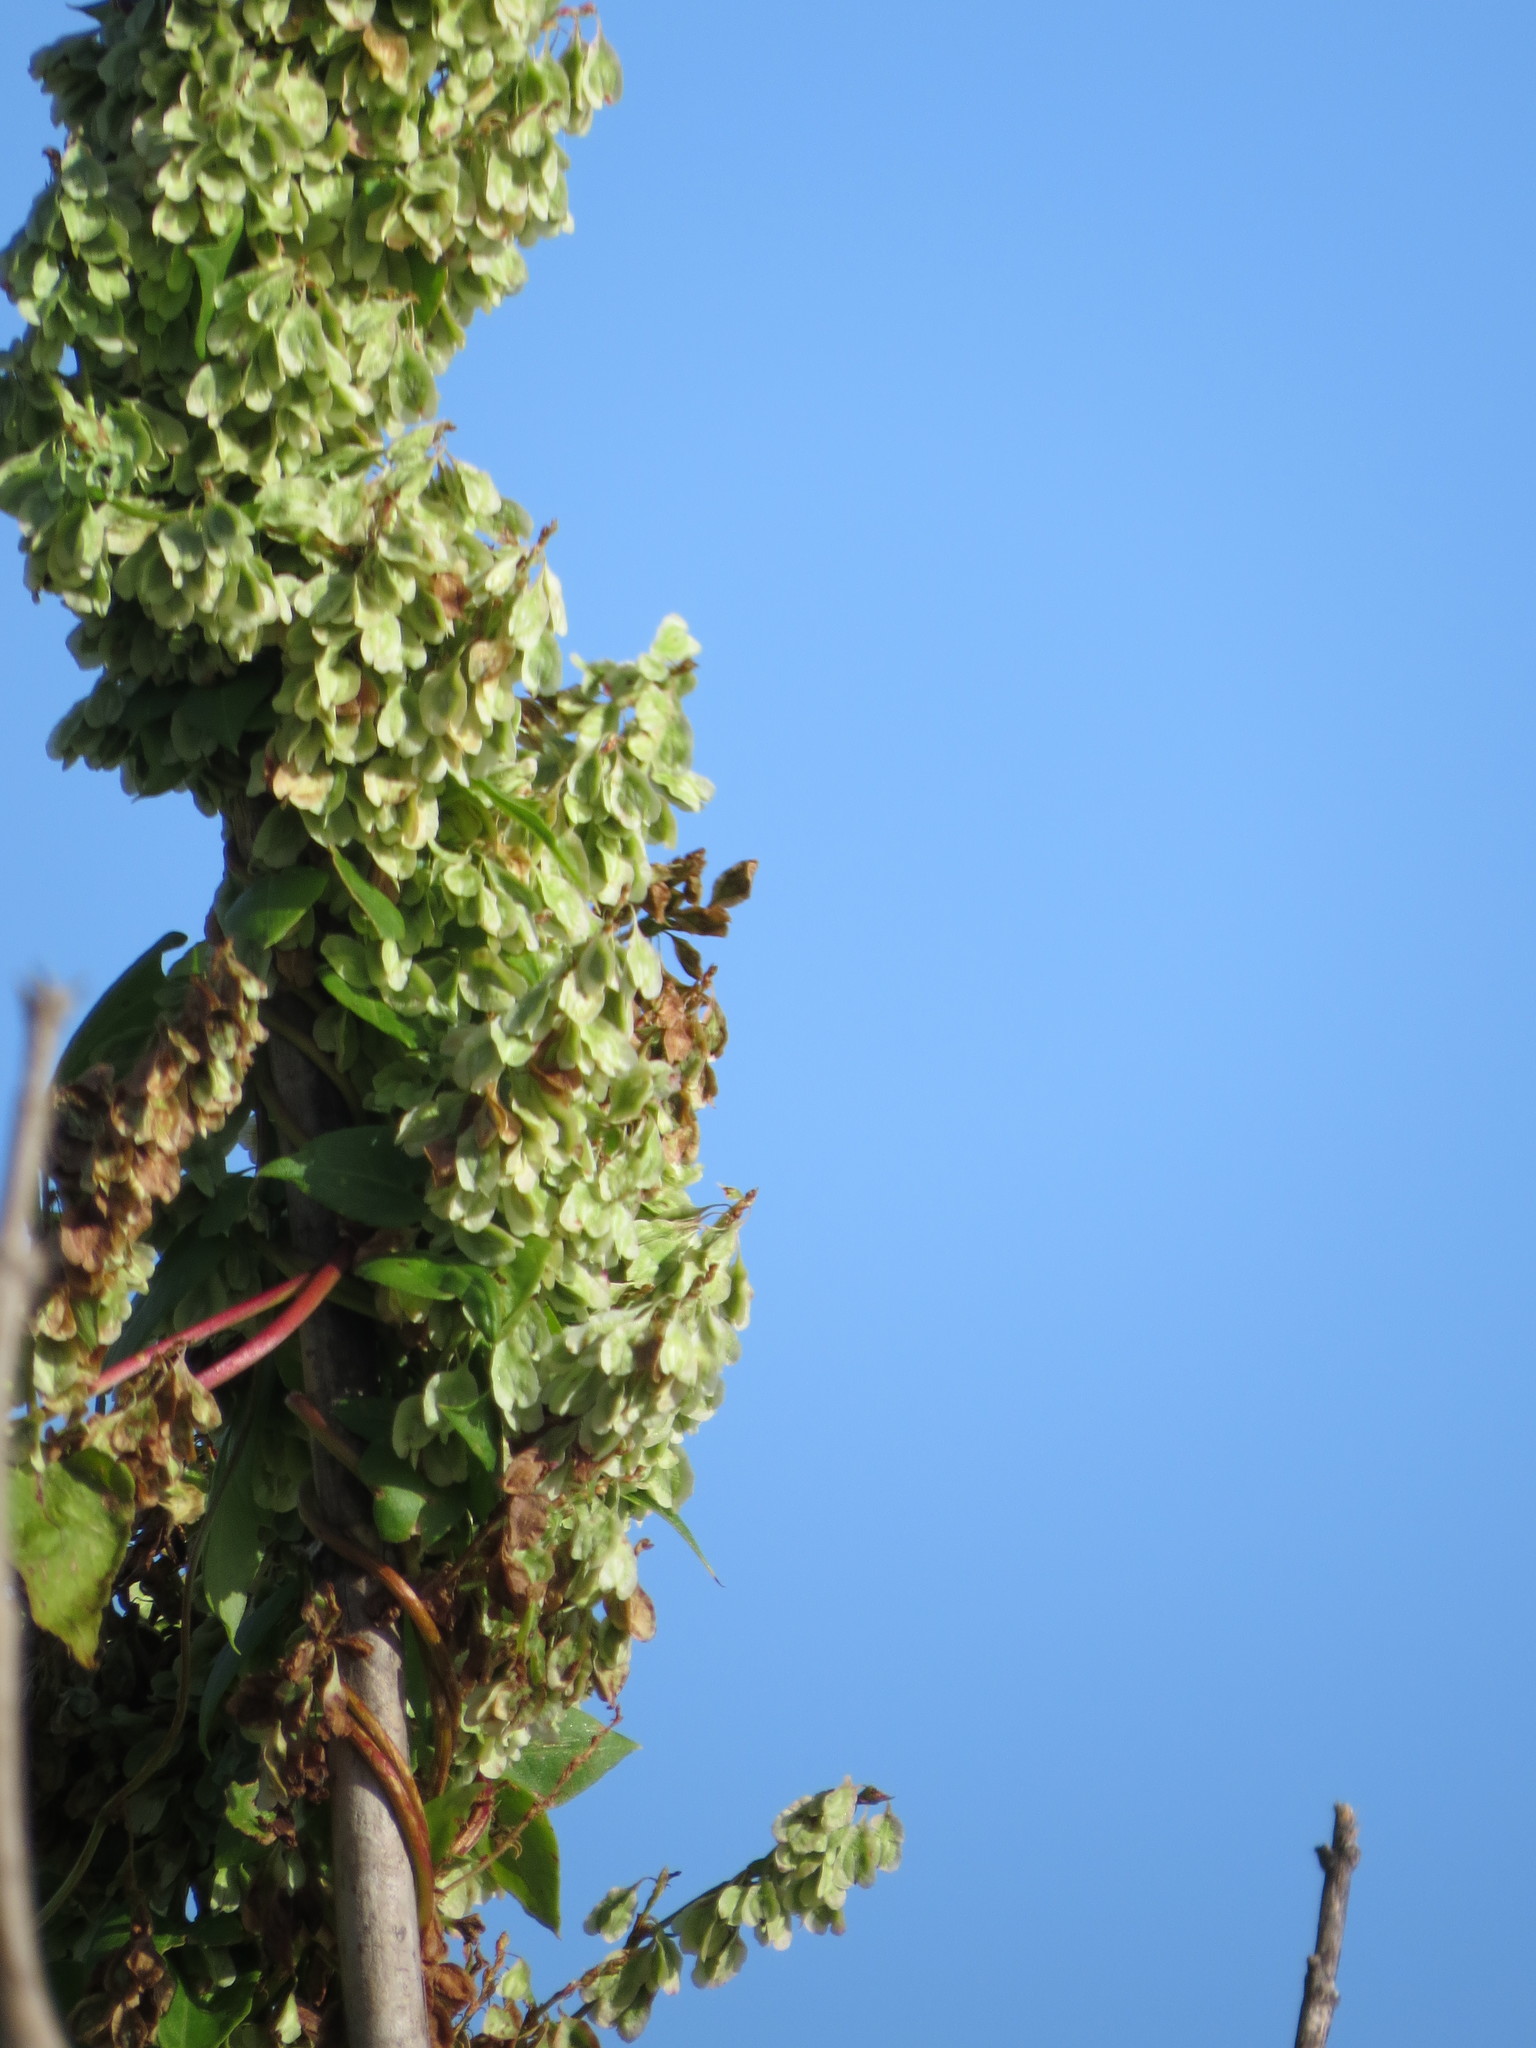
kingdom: Plantae
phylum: Tracheophyta
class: Magnoliopsida
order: Caryophyllales
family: Polygonaceae
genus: Fallopia
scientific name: Fallopia scandens
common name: Climbing false buckwheat
